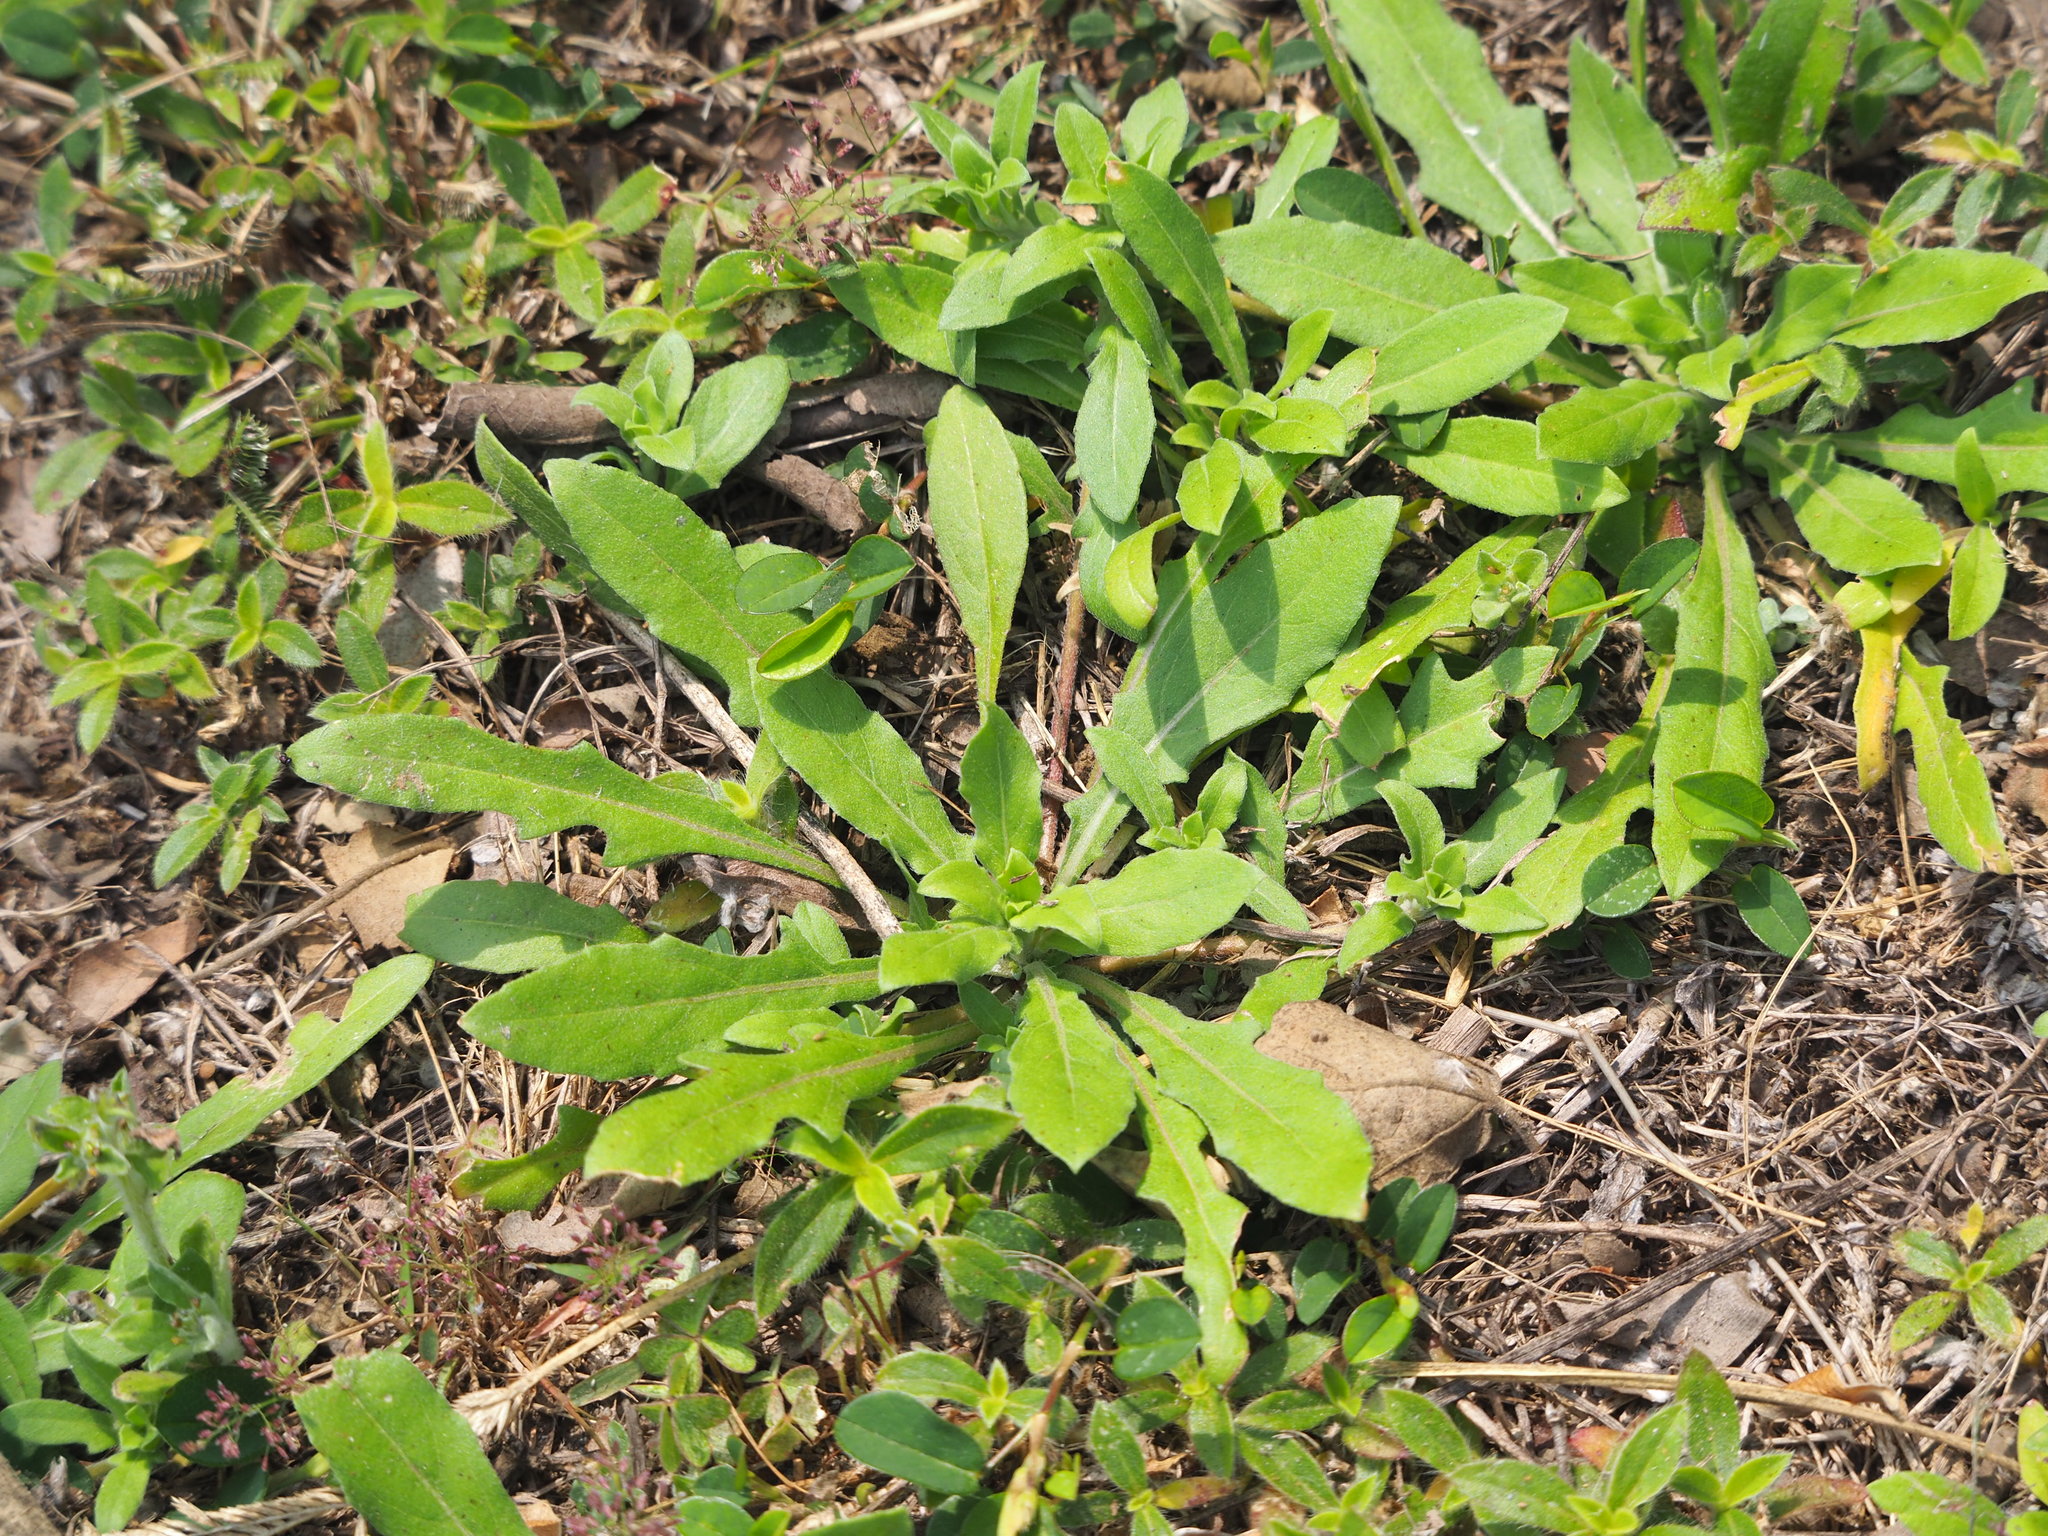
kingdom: Plantae
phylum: Tracheophyta
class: Magnoliopsida
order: Myrtales
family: Onagraceae
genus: Oenothera
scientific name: Oenothera laciniata
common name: Cut-leaved evening-primrose
